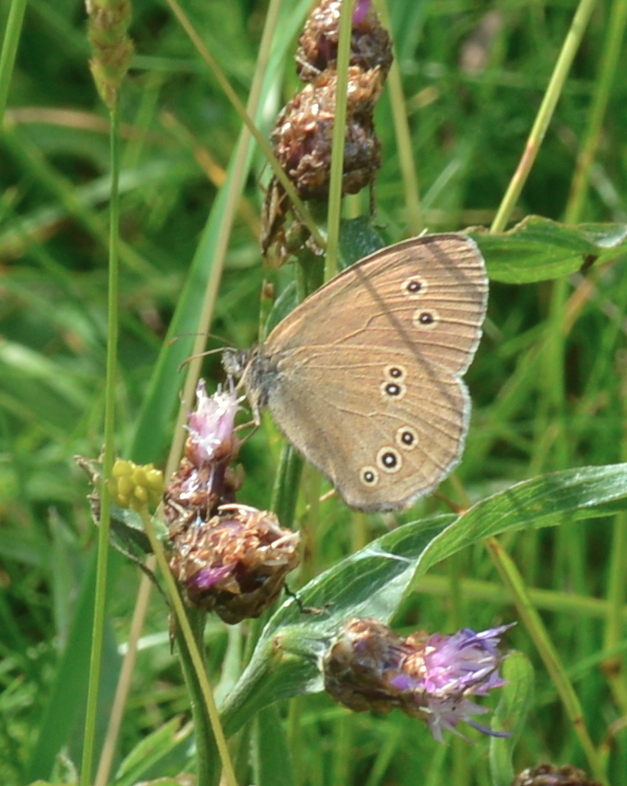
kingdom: Animalia
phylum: Arthropoda
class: Insecta
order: Lepidoptera
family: Nymphalidae
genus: Aphantopus
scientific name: Aphantopus hyperantus
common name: Ringlet
